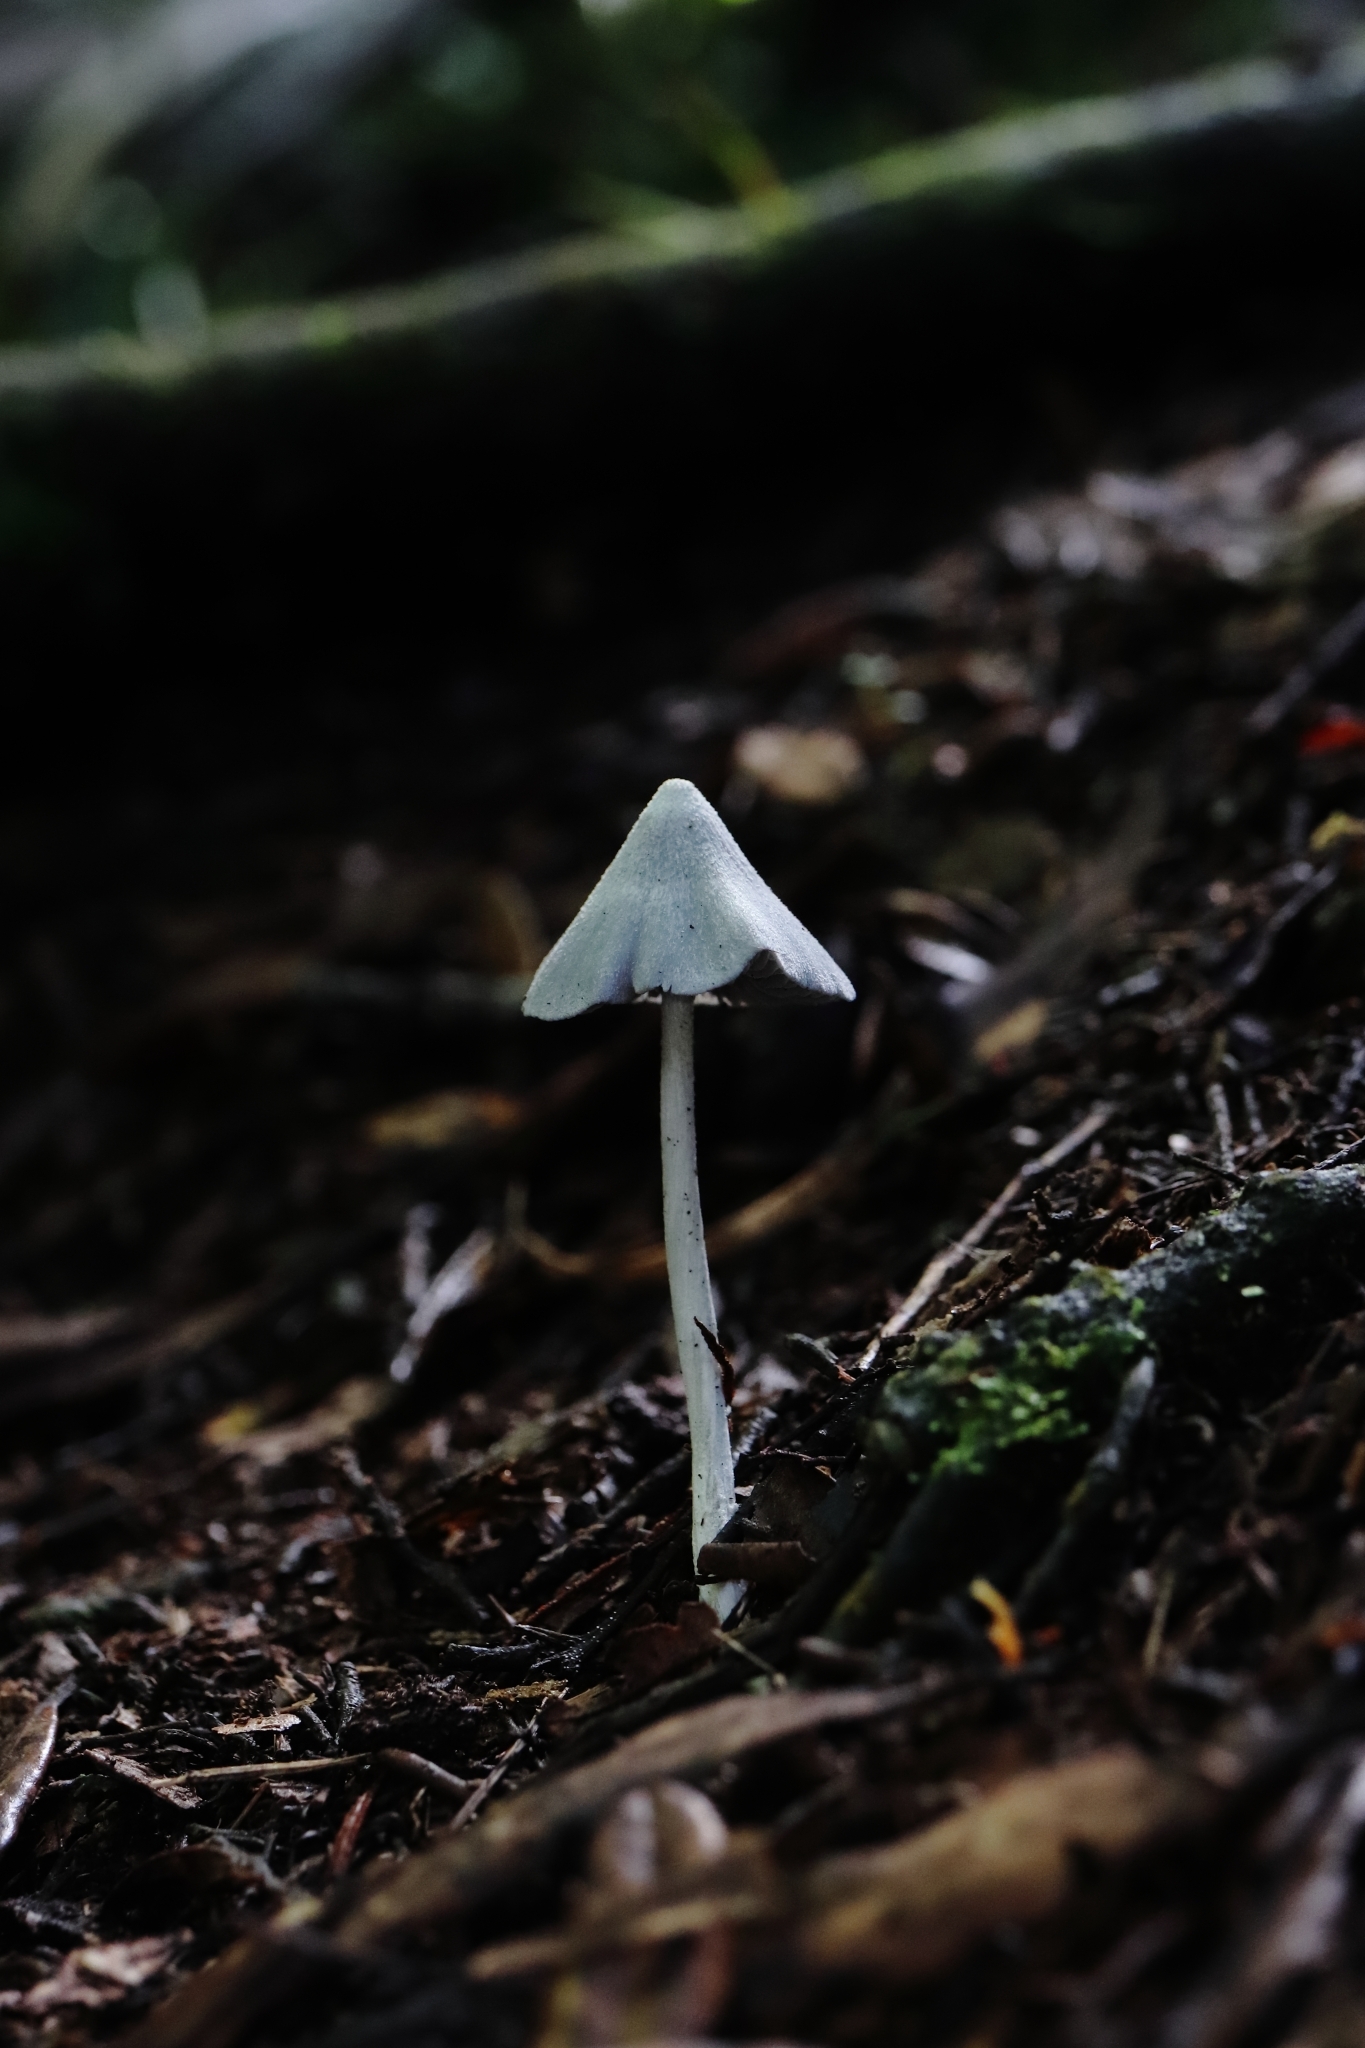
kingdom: Fungi
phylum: Basidiomycota
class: Agaricomycetes
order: Agaricales
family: Entolomataceae
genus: Entoloma
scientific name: Entoloma hochstetteri
